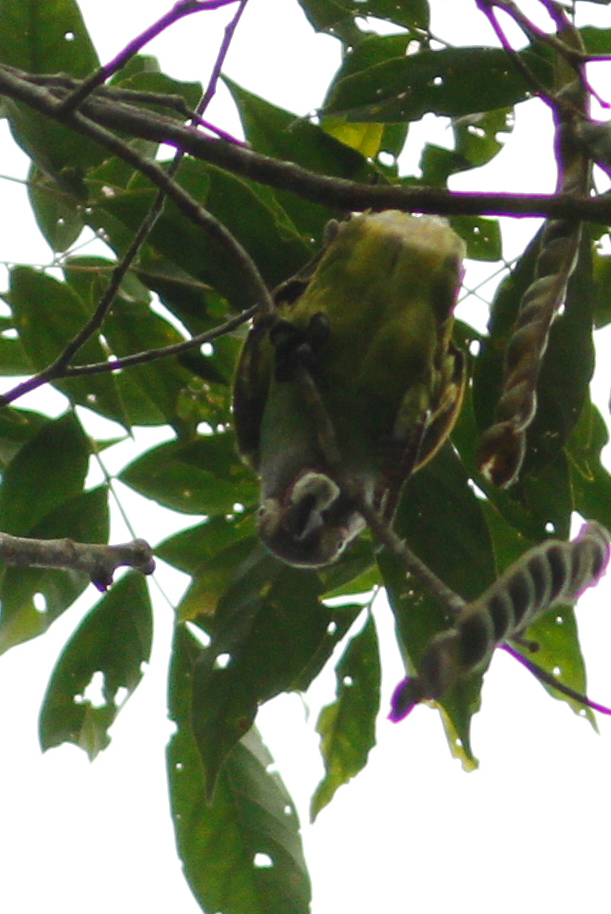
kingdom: Animalia
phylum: Chordata
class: Aves
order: Psittaciformes
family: Psittacidae
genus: Aratinga
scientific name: Aratinga weddellii
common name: Dusky-headed parakeet
